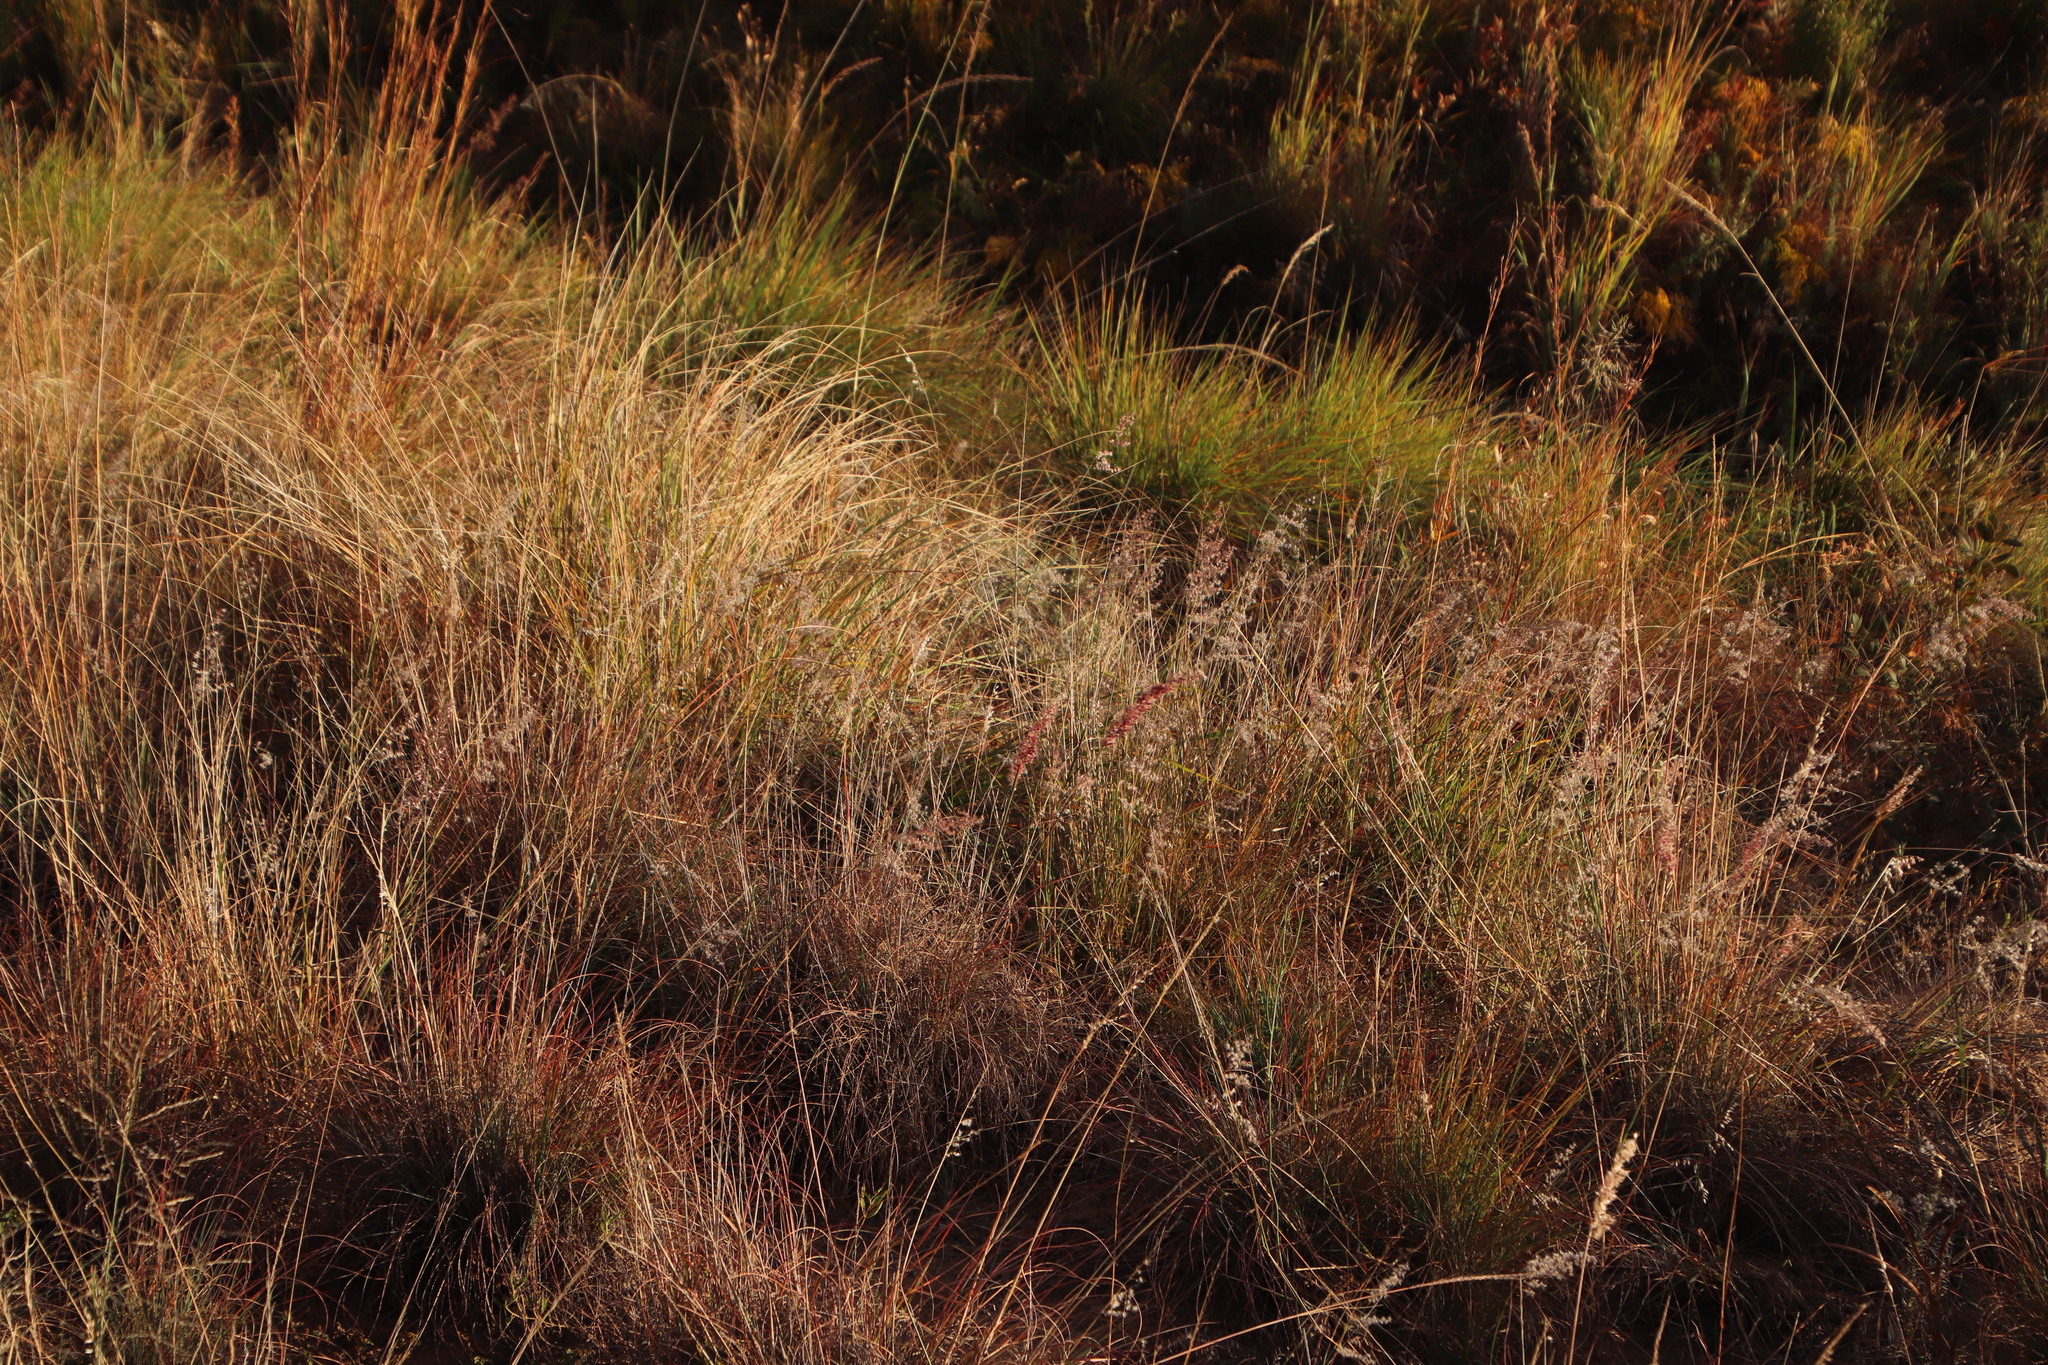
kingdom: Plantae
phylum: Tracheophyta
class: Liliopsida
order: Poales
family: Poaceae
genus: Melinis
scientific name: Melinis repens
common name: Rose natal grass
